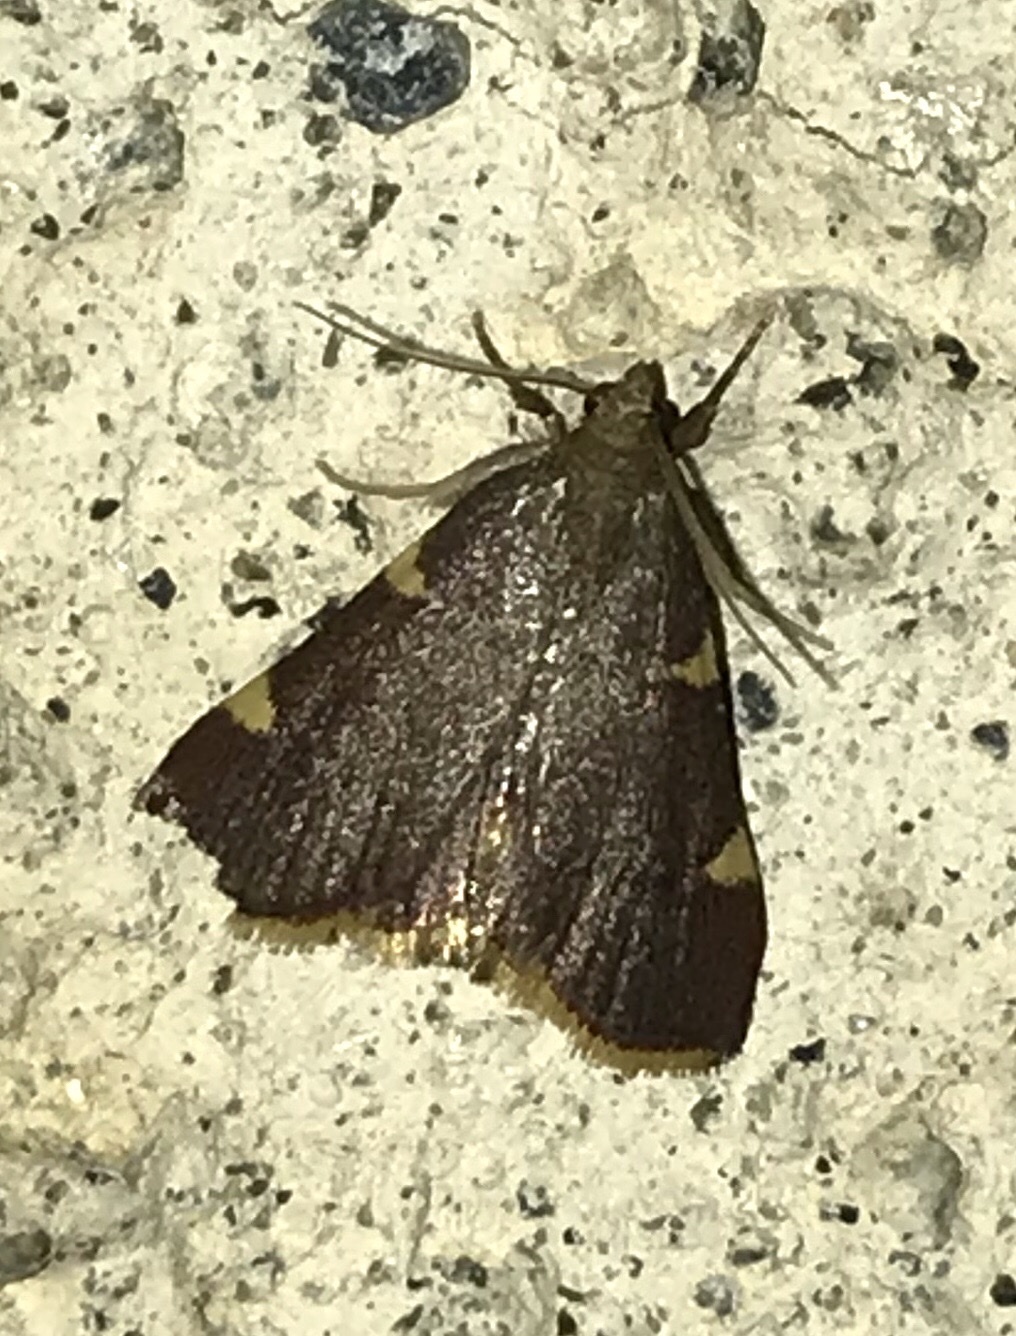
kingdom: Animalia
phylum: Arthropoda
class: Insecta
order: Lepidoptera
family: Pyralidae
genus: Hypsopygia
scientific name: Hypsopygia olinalis
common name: Yellow-fringed dolichomia moth
